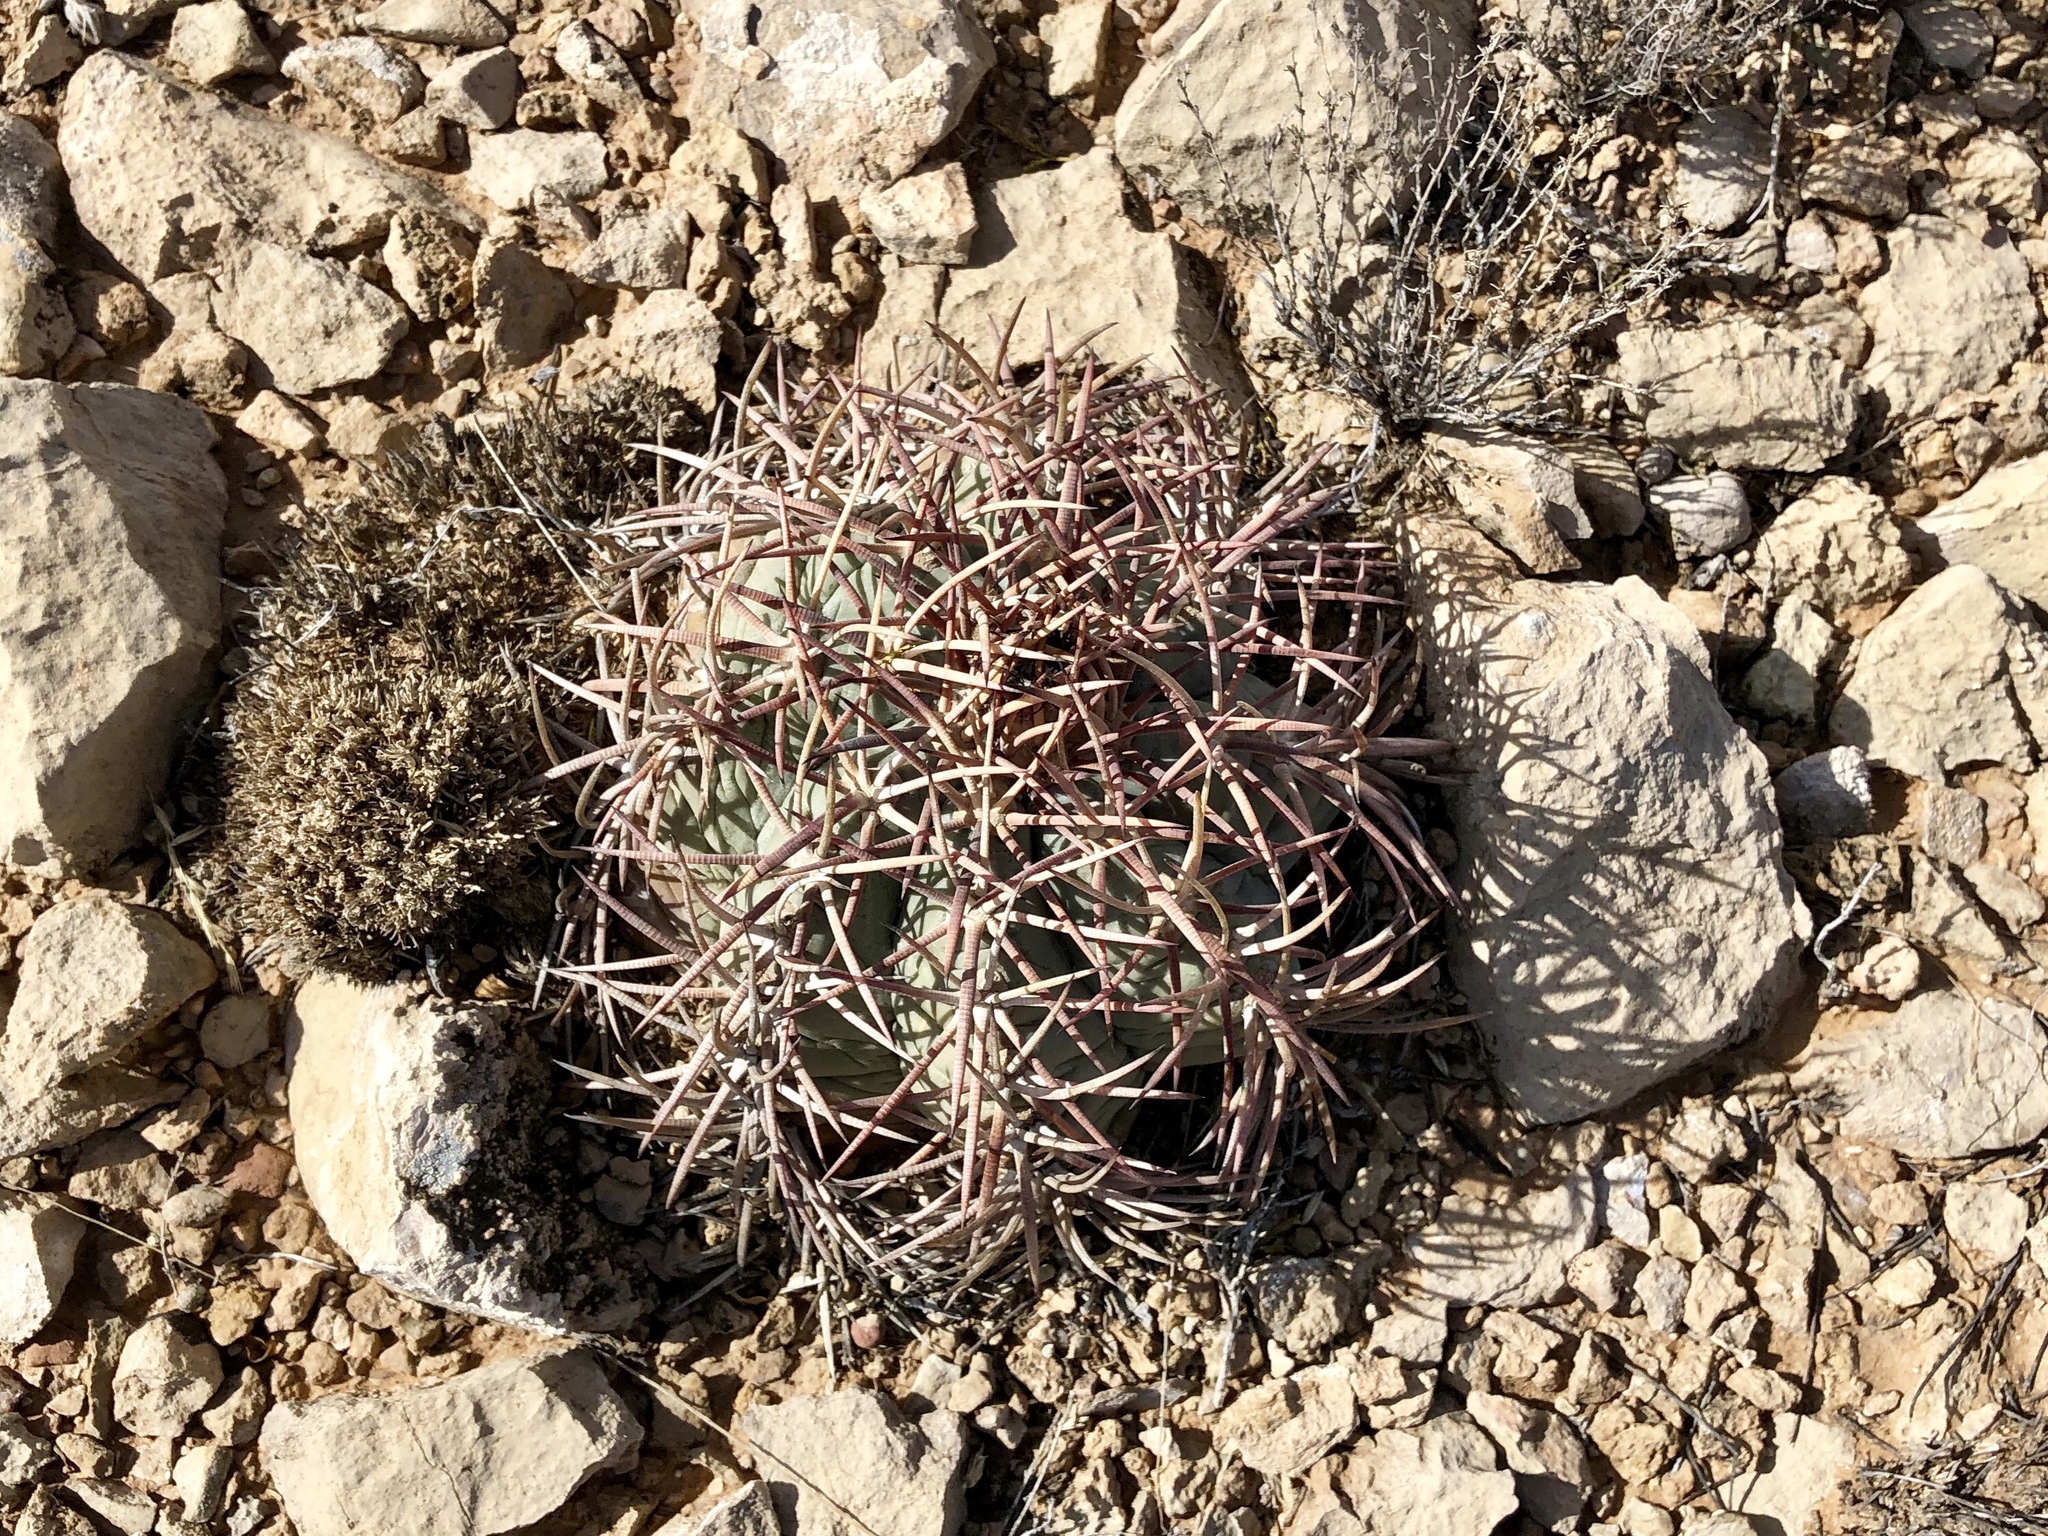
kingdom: Plantae
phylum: Tracheophyta
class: Magnoliopsida
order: Caryophyllales
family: Cactaceae
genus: Echinocactus
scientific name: Echinocactus horizonthalonius
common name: Devilshead
